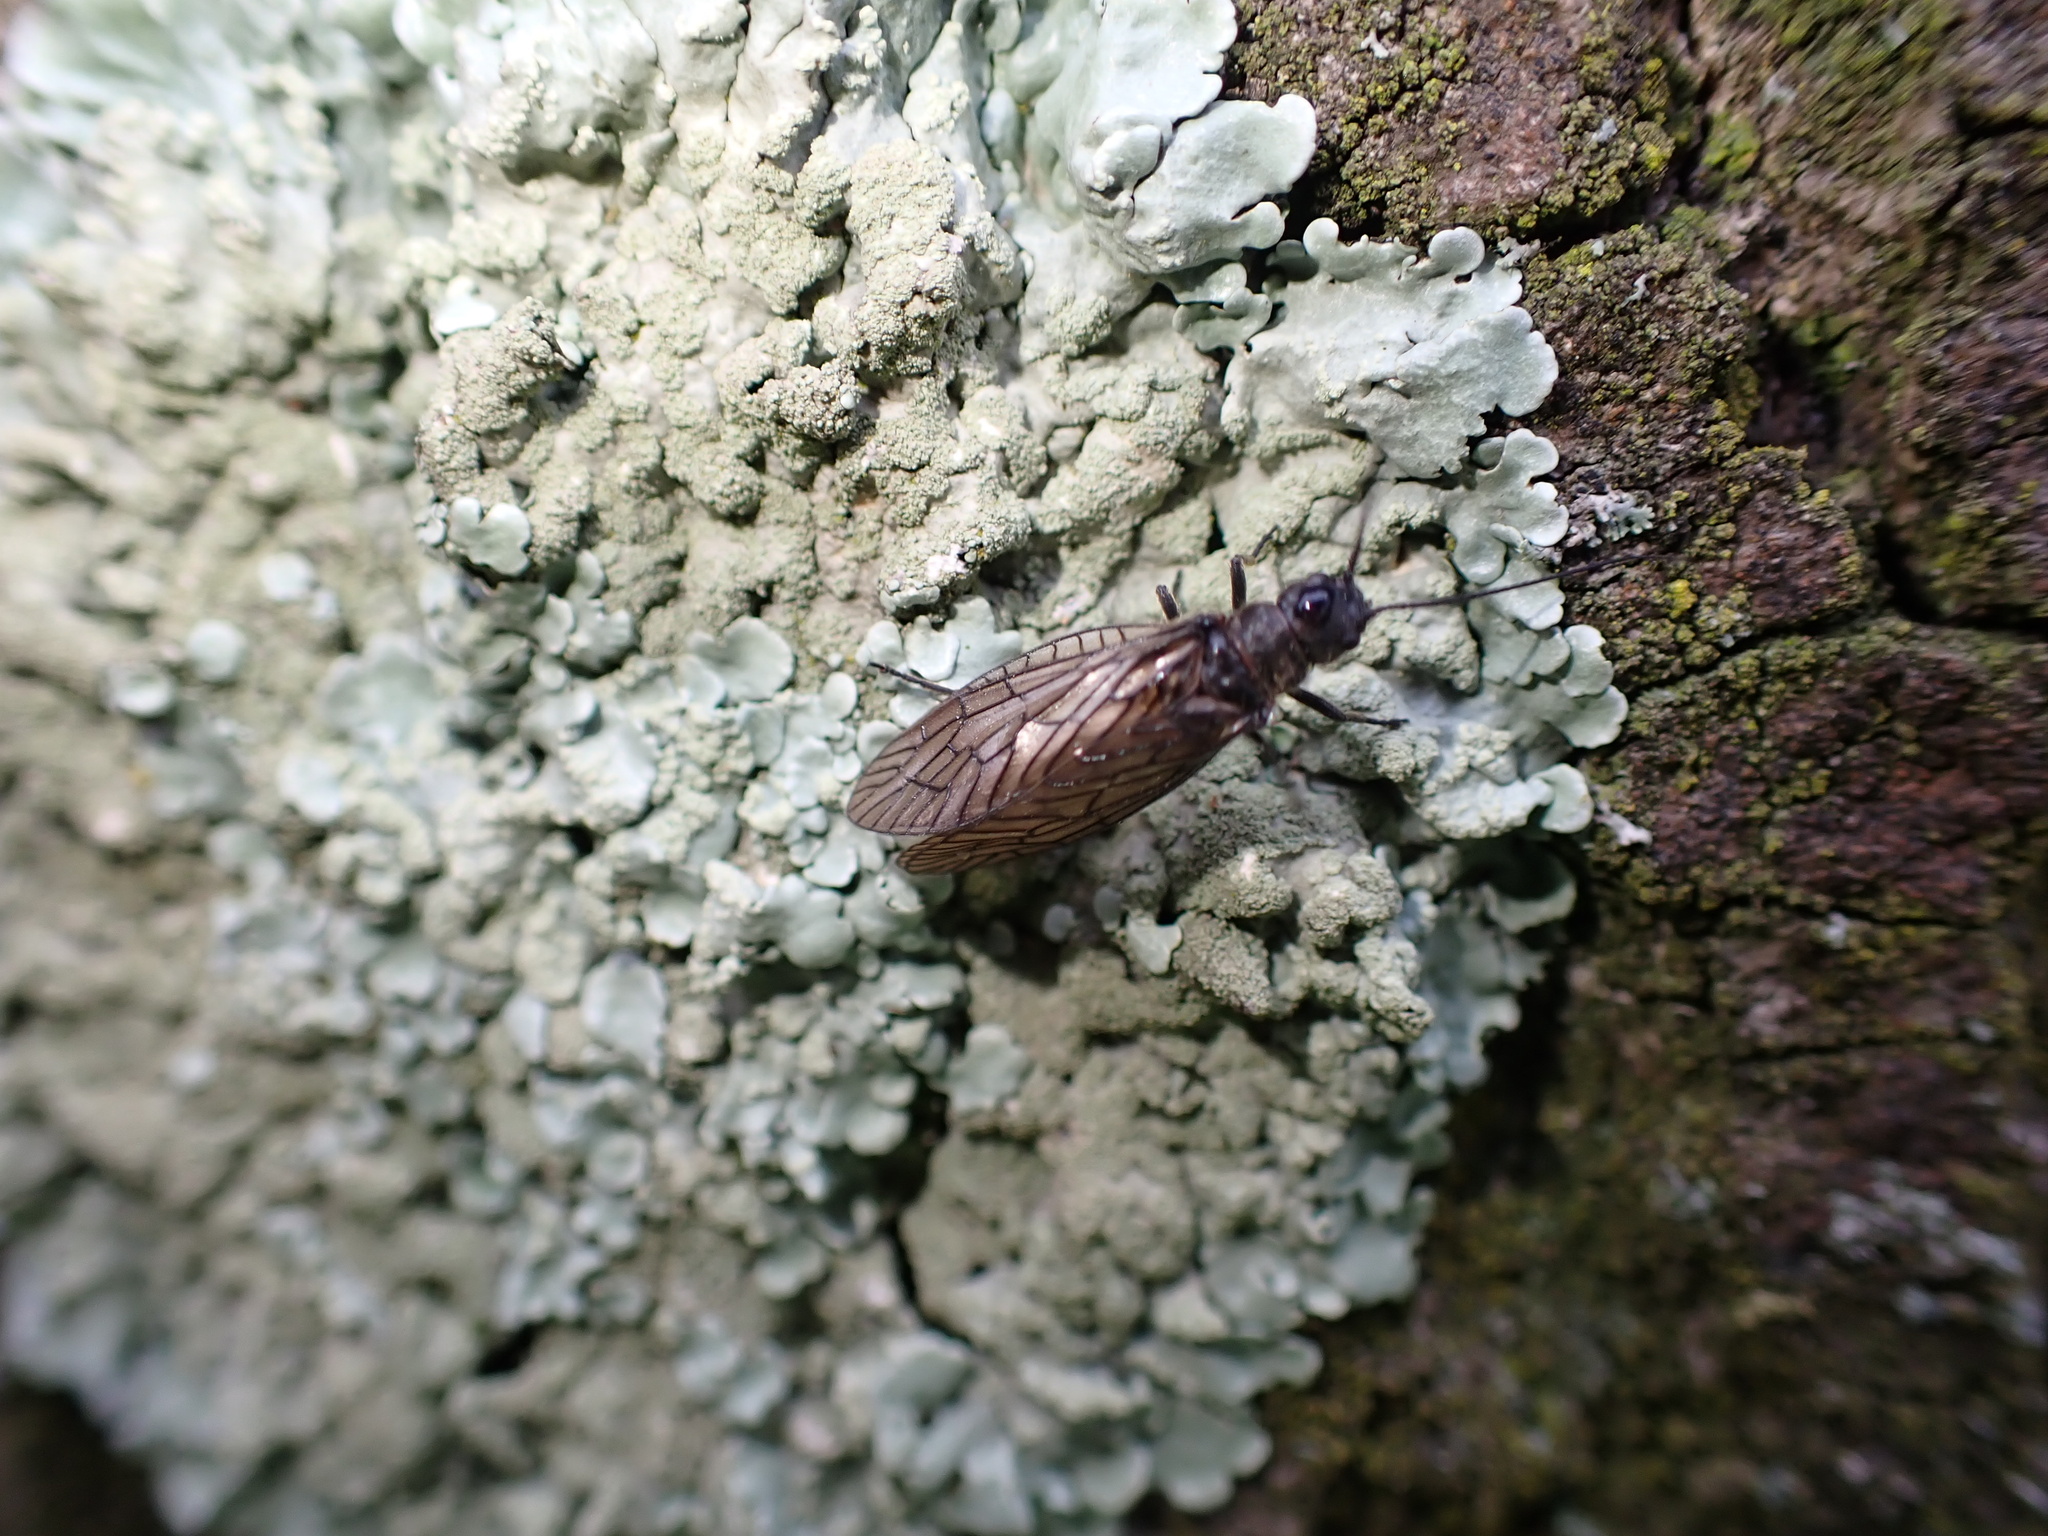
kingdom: Animalia
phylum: Arthropoda
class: Insecta
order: Megaloptera
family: Sialidae
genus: Sialis
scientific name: Sialis
